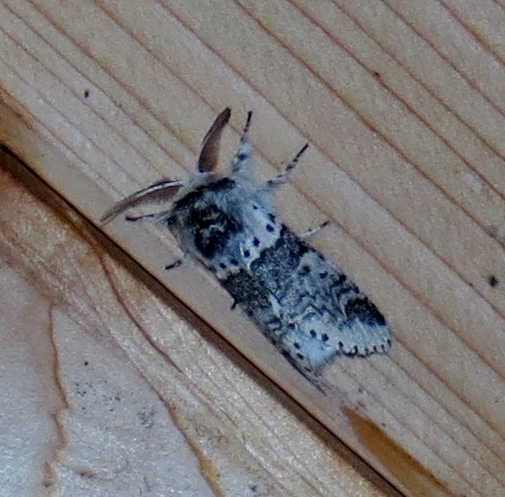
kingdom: Animalia
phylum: Arthropoda
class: Insecta
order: Lepidoptera
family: Notodontidae
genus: Furcula
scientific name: Furcula occidentalis
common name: Western furcula moth
